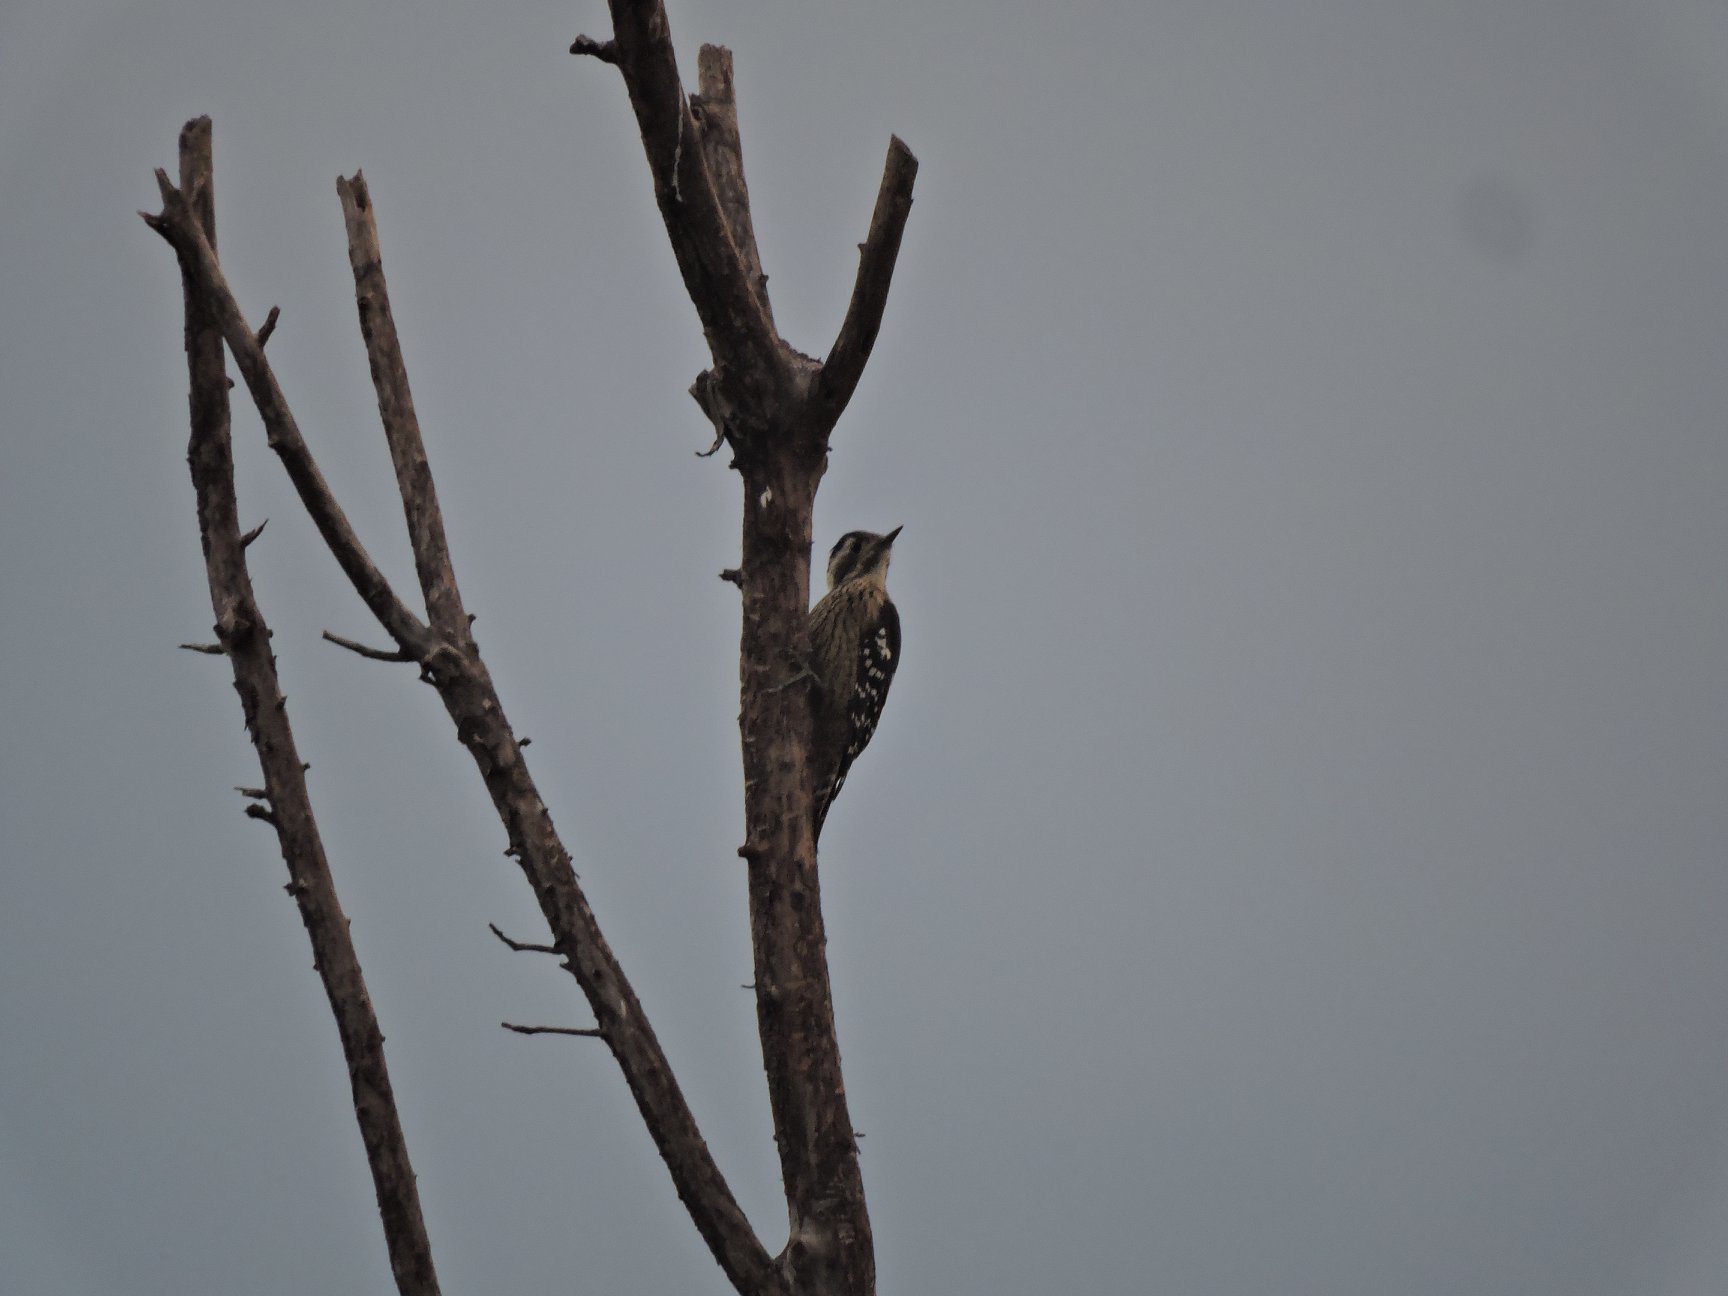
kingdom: Animalia
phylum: Chordata
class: Aves
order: Piciformes
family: Picidae
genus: Yungipicus
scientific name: Yungipicus canicapillus
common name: Grey-capped pygmy woodpecker
